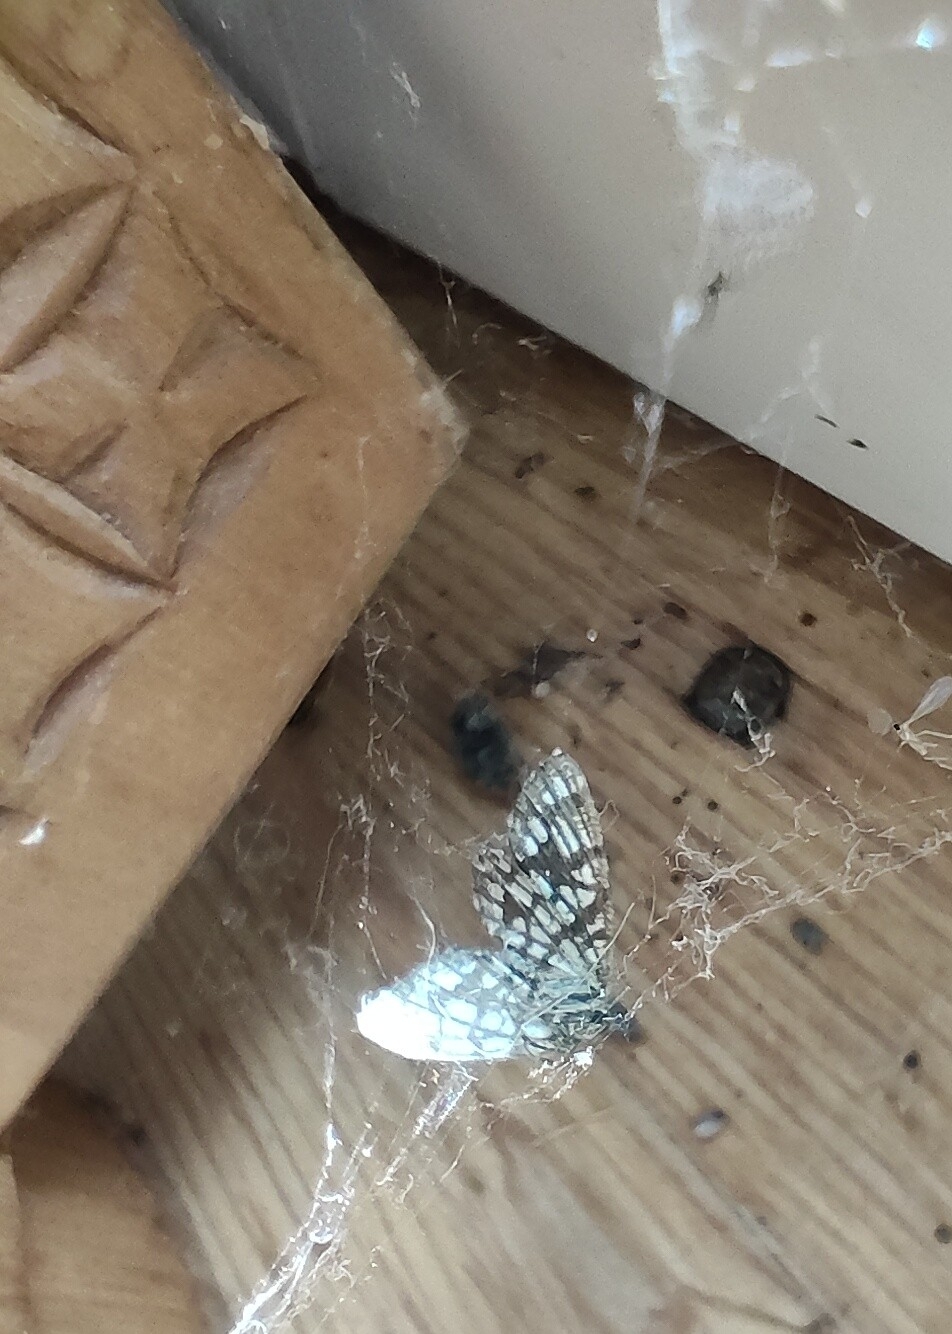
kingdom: Animalia
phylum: Arthropoda
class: Insecta
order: Lepidoptera
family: Geometridae
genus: Chiasmia
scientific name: Chiasmia clathrata
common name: Latticed heath
